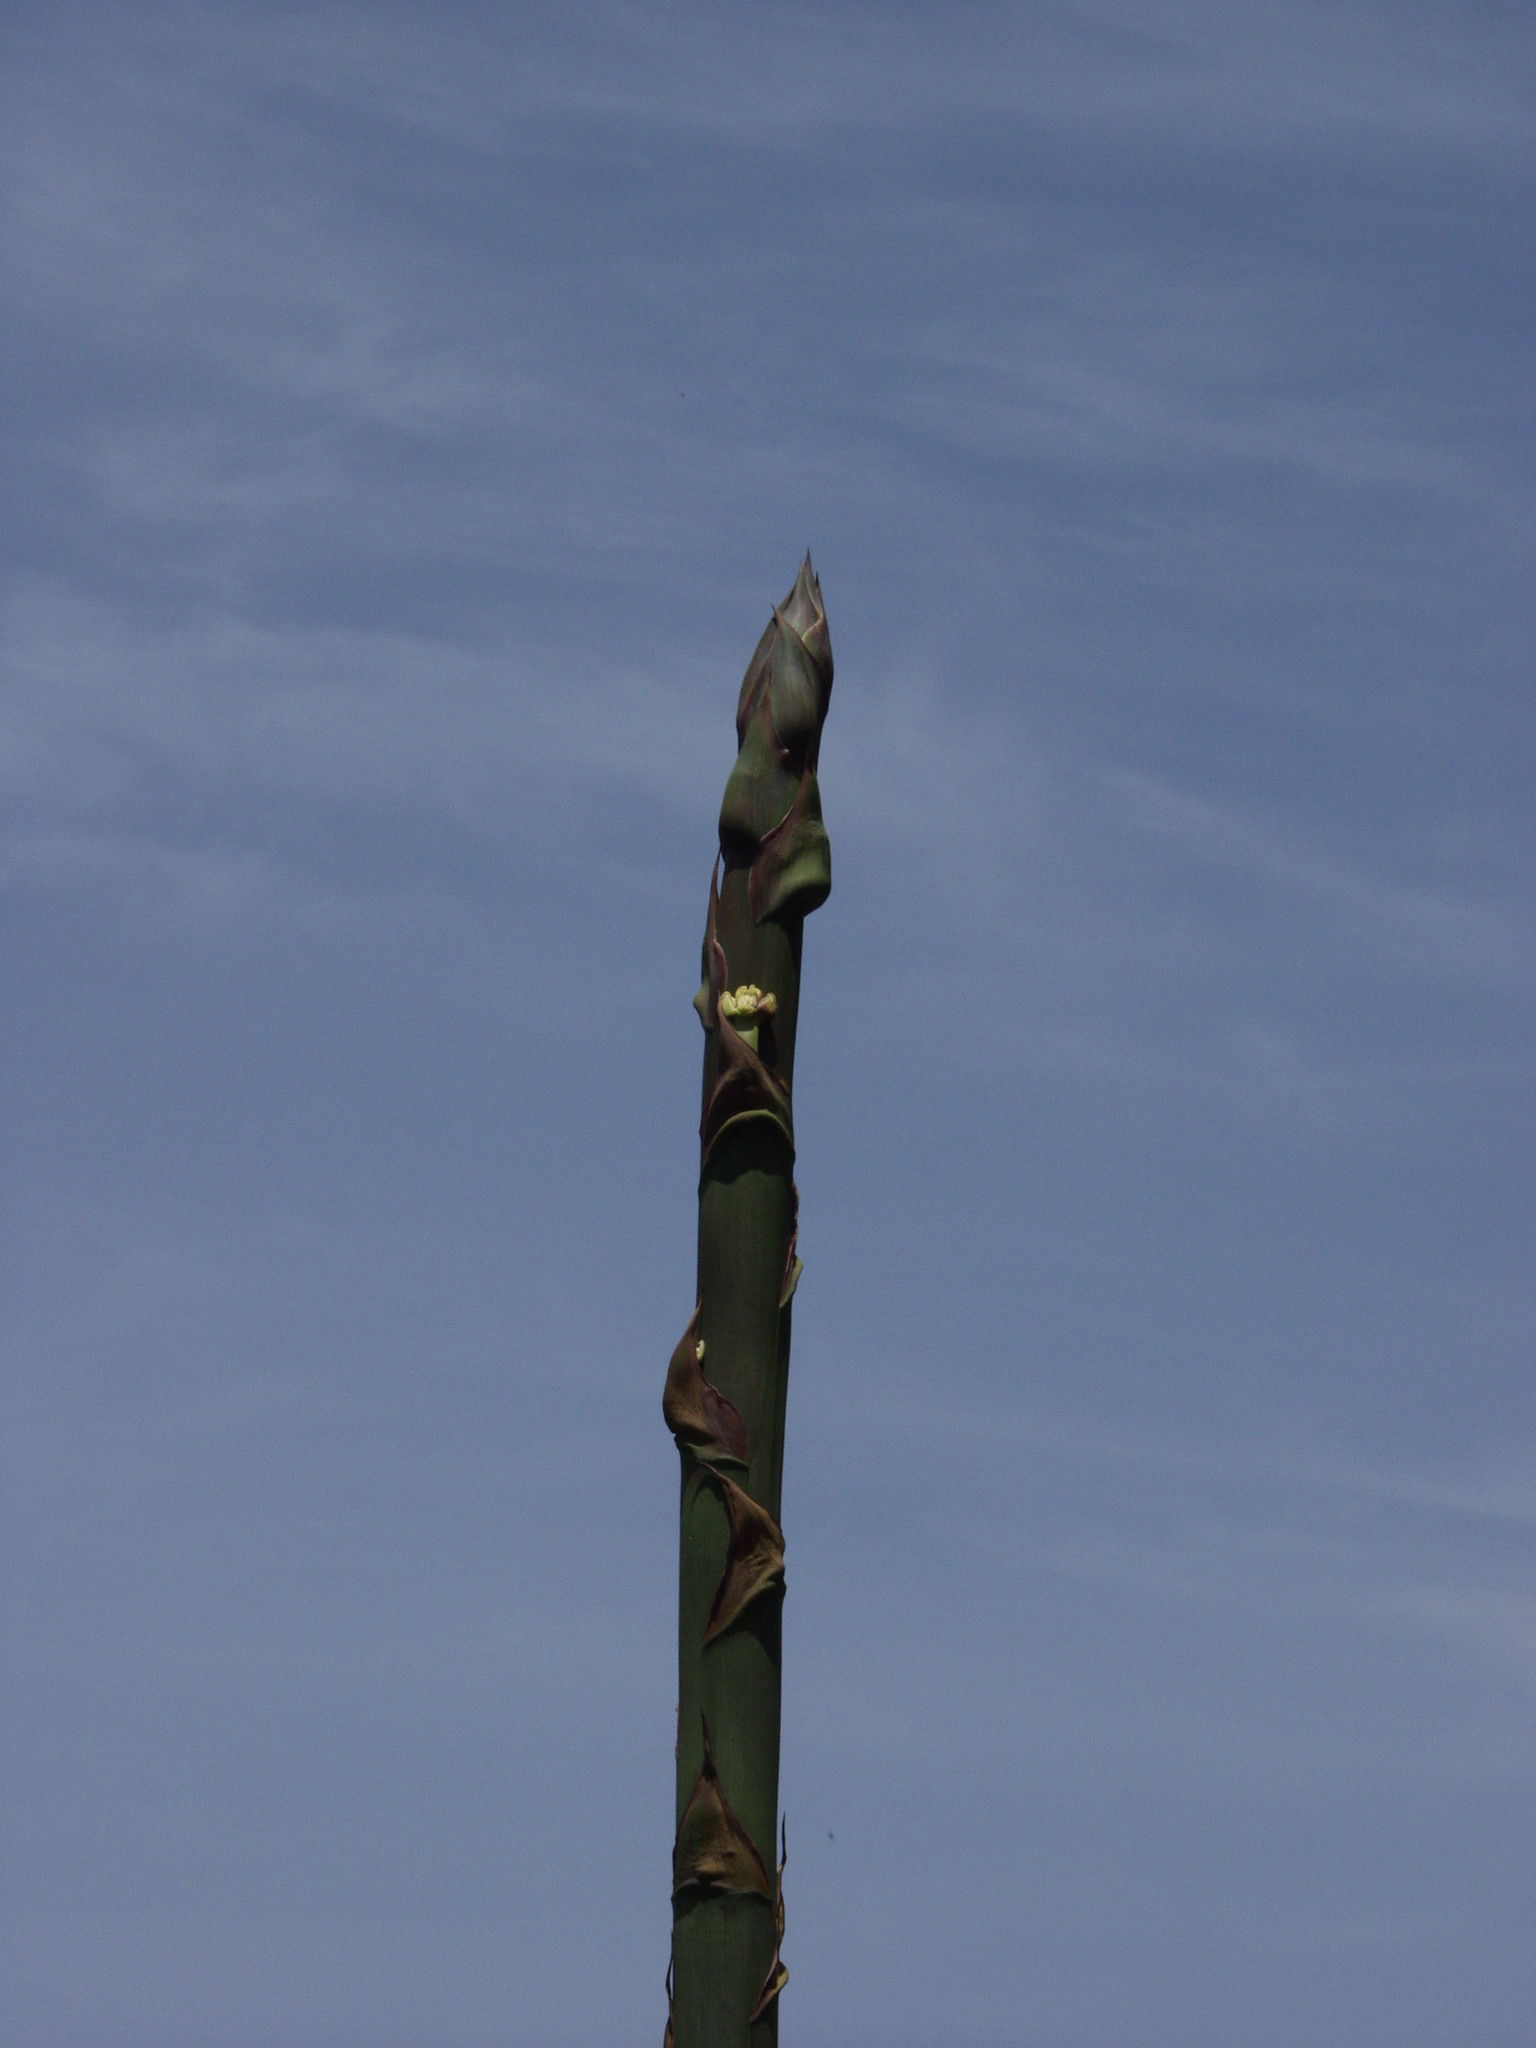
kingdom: Plantae
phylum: Tracheophyta
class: Liliopsida
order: Asparagales
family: Asparagaceae
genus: Agave
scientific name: Agave americana
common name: Centuryplant
